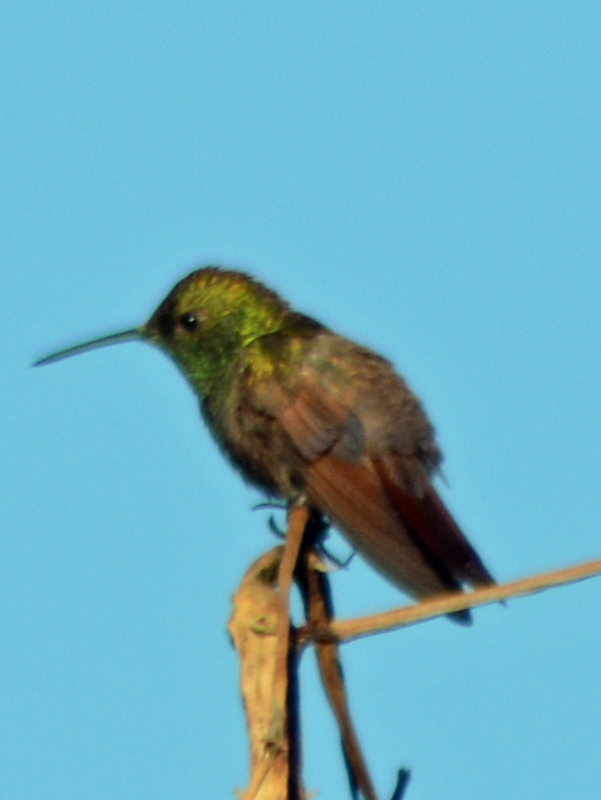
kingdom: Animalia
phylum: Chordata
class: Aves
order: Apodiformes
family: Trochilidae
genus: Saucerottia
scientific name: Saucerottia beryllina
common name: Berylline hummingbird
